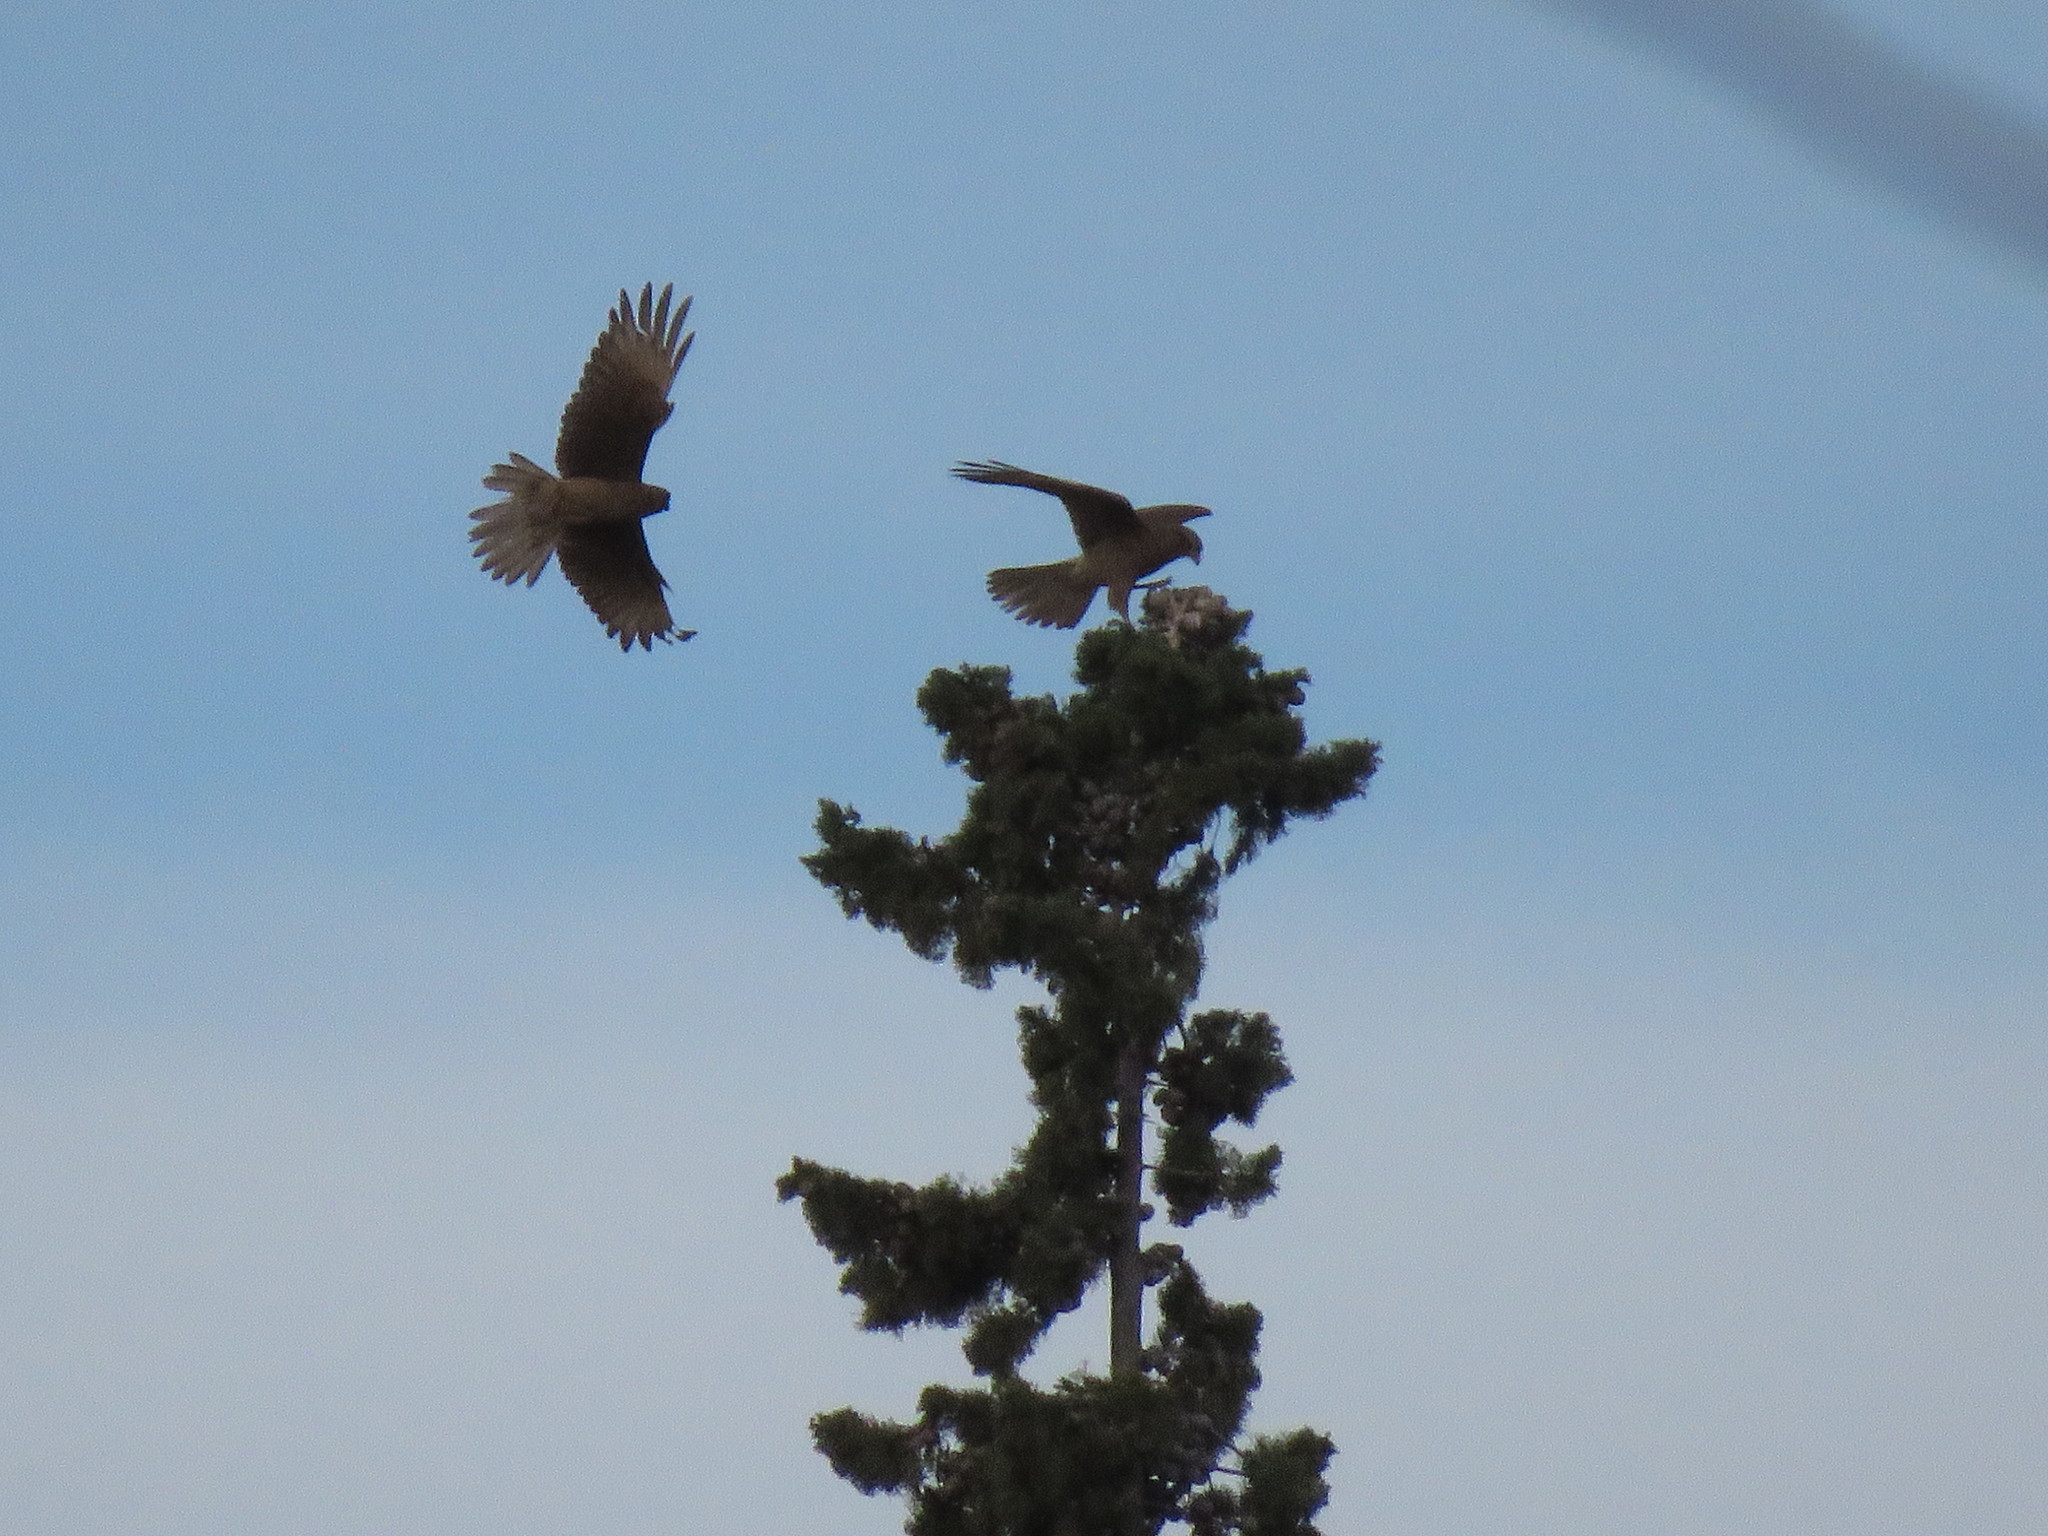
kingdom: Animalia
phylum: Chordata
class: Aves
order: Falconiformes
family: Falconidae
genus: Daptrius
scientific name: Daptrius
